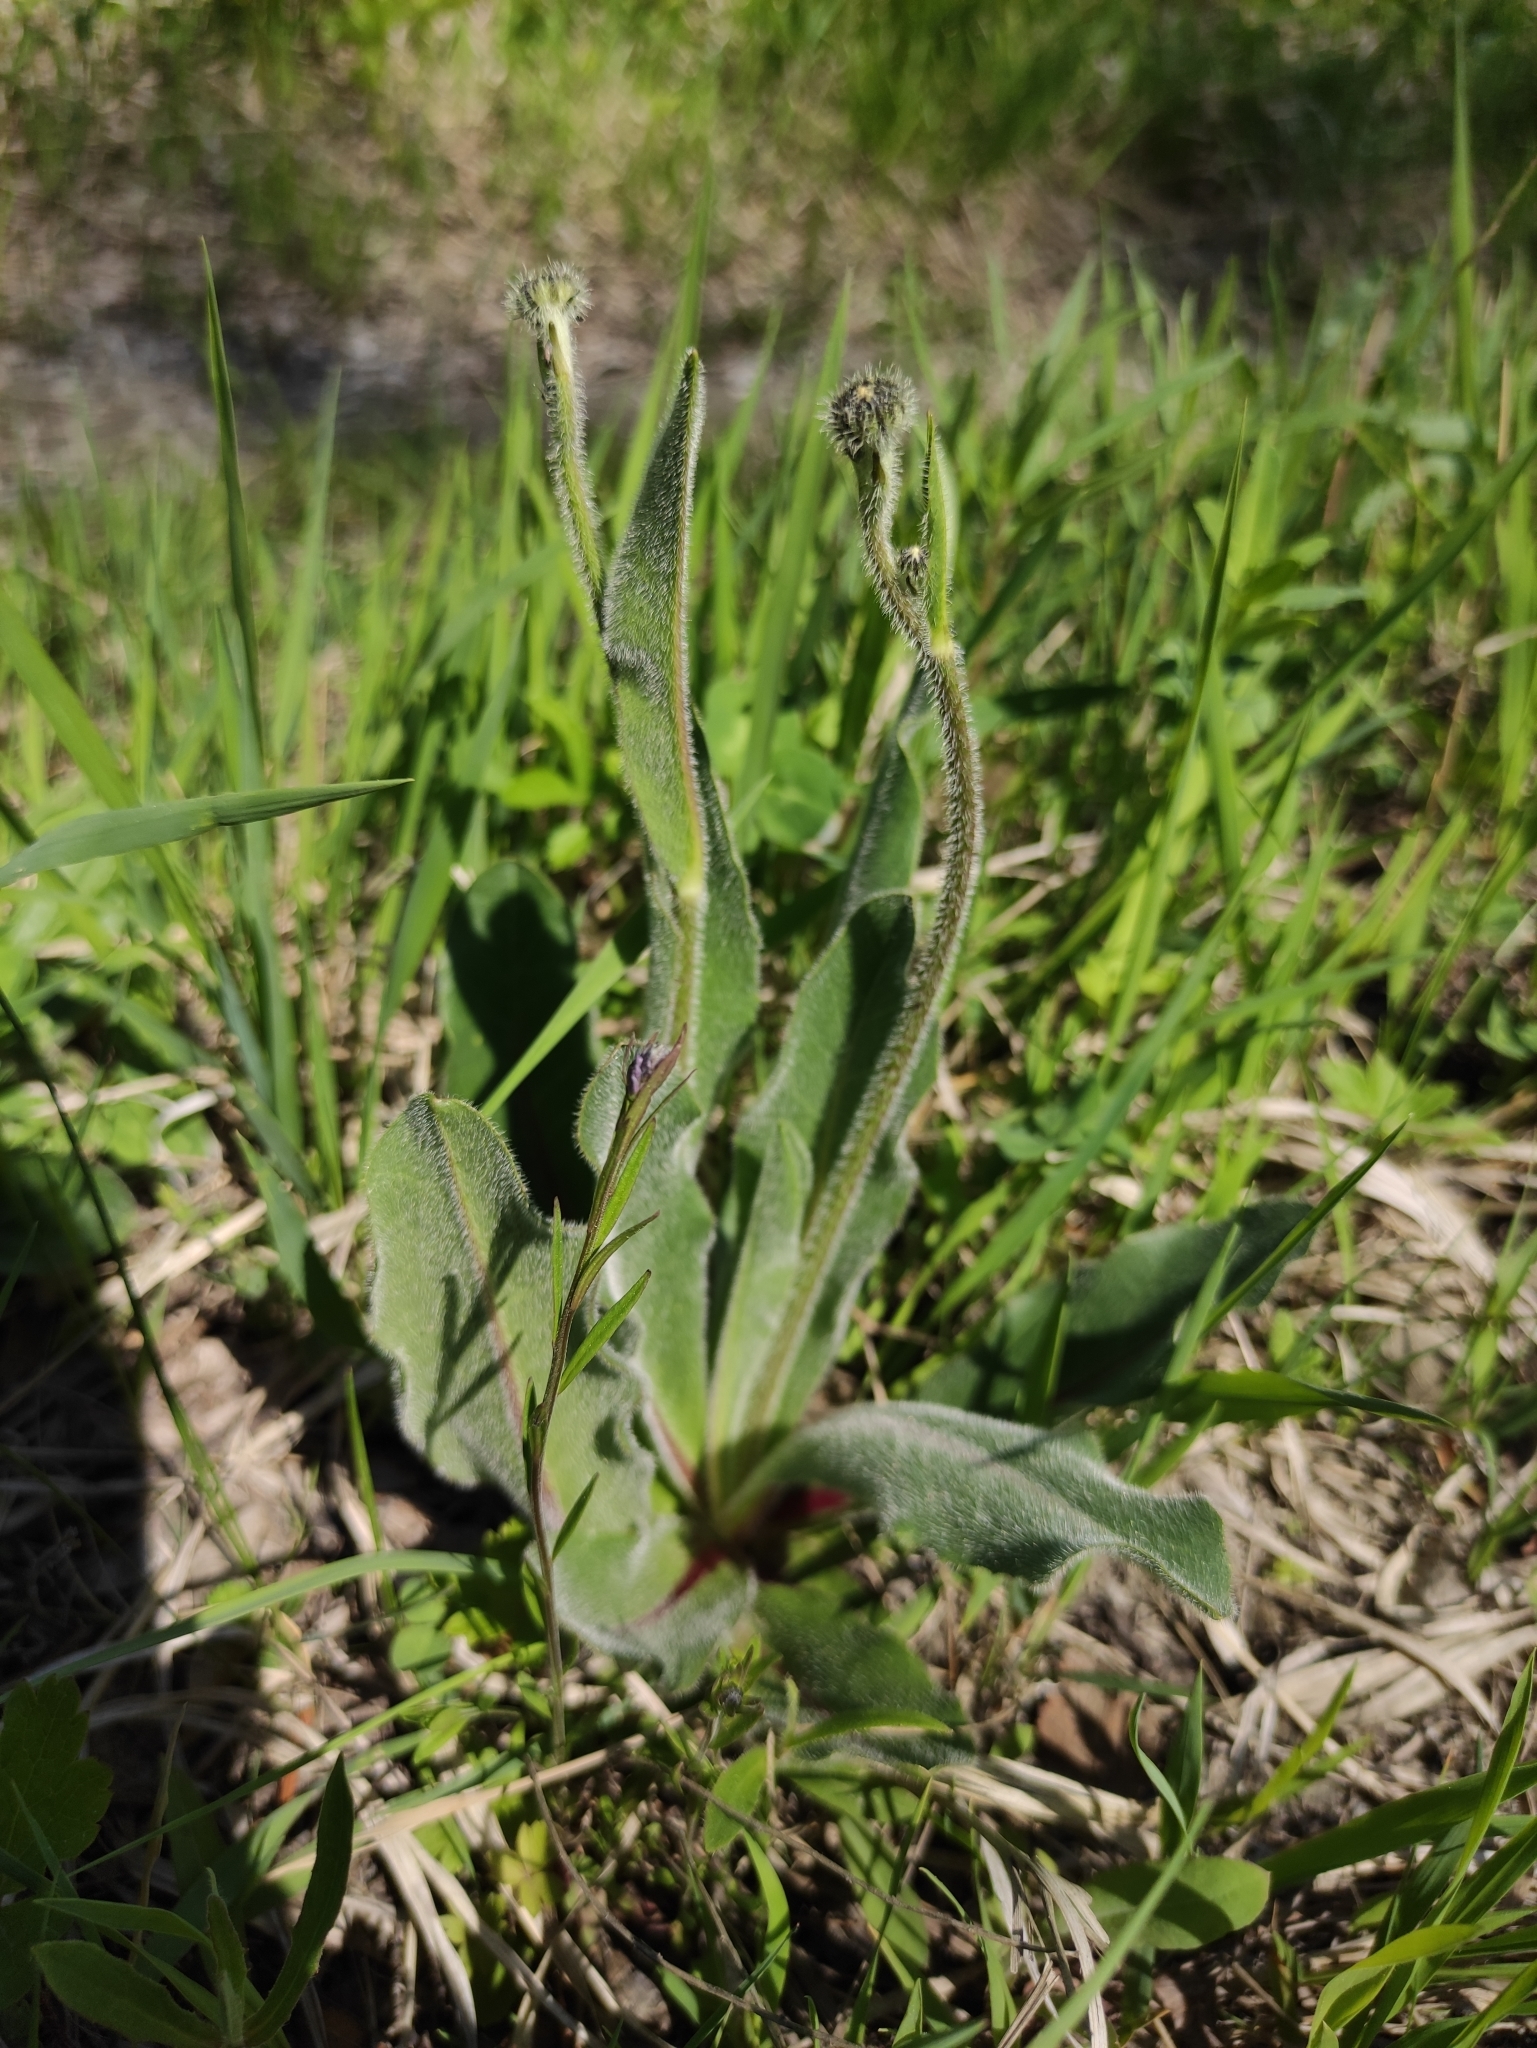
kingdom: Plantae
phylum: Tracheophyta
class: Magnoliopsida
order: Asterales
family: Asteraceae
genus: Trommsdorffia
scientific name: Trommsdorffia maculata
